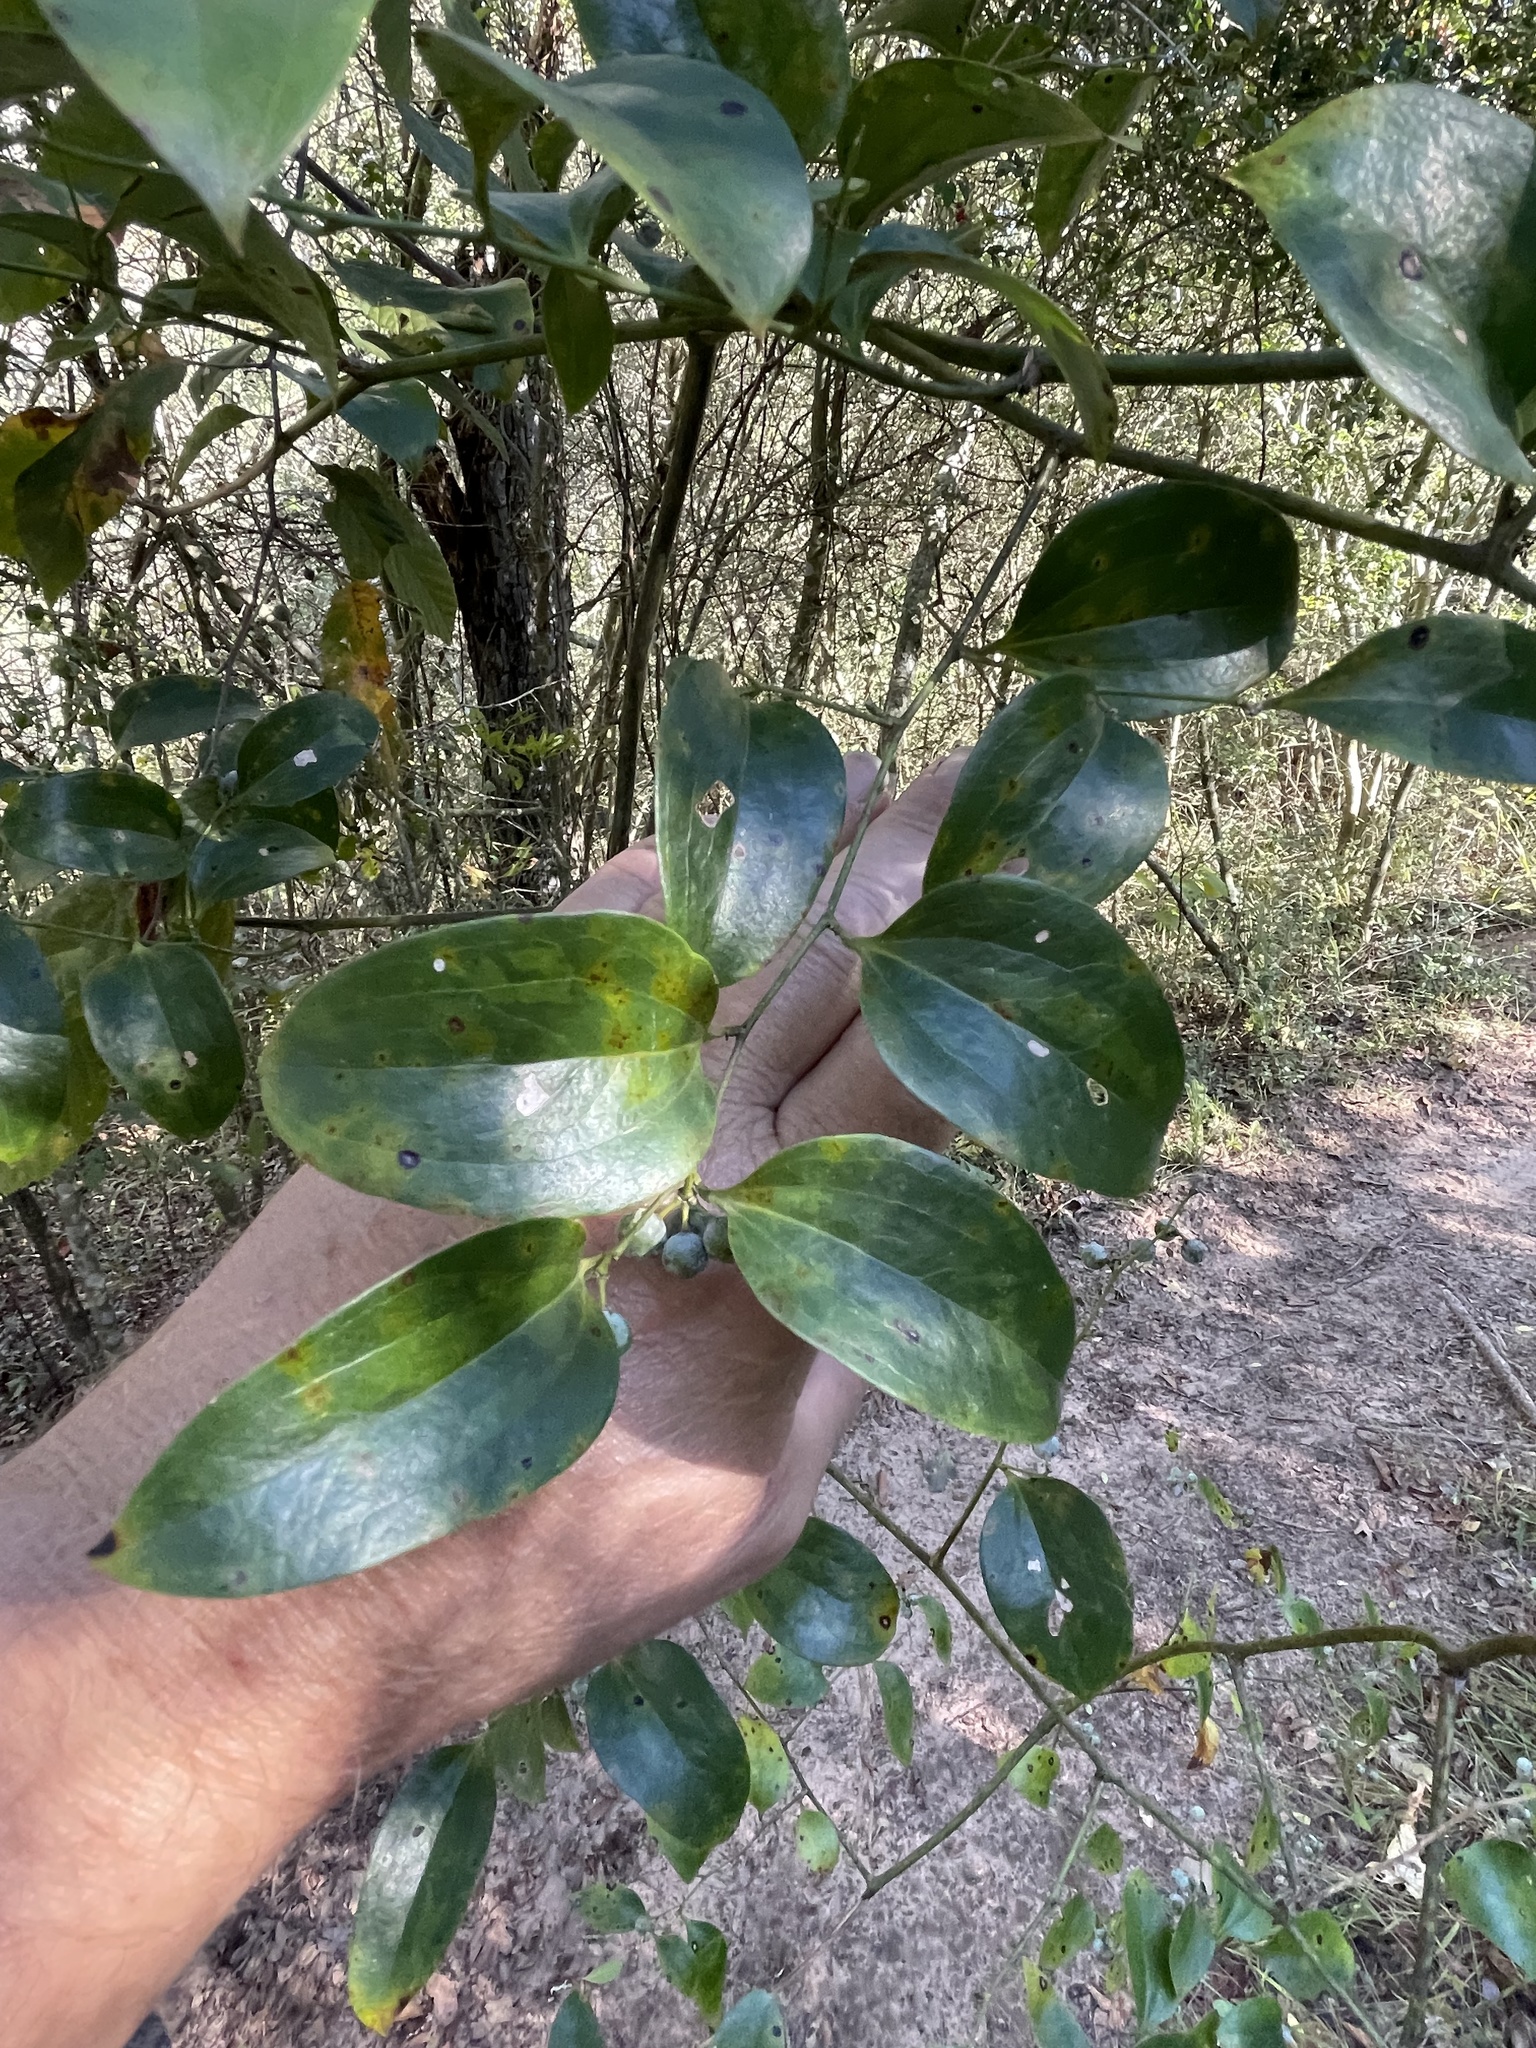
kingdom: Plantae
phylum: Tracheophyta
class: Liliopsida
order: Liliales
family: Smilacaceae
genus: Smilax
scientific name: Smilax maritima
